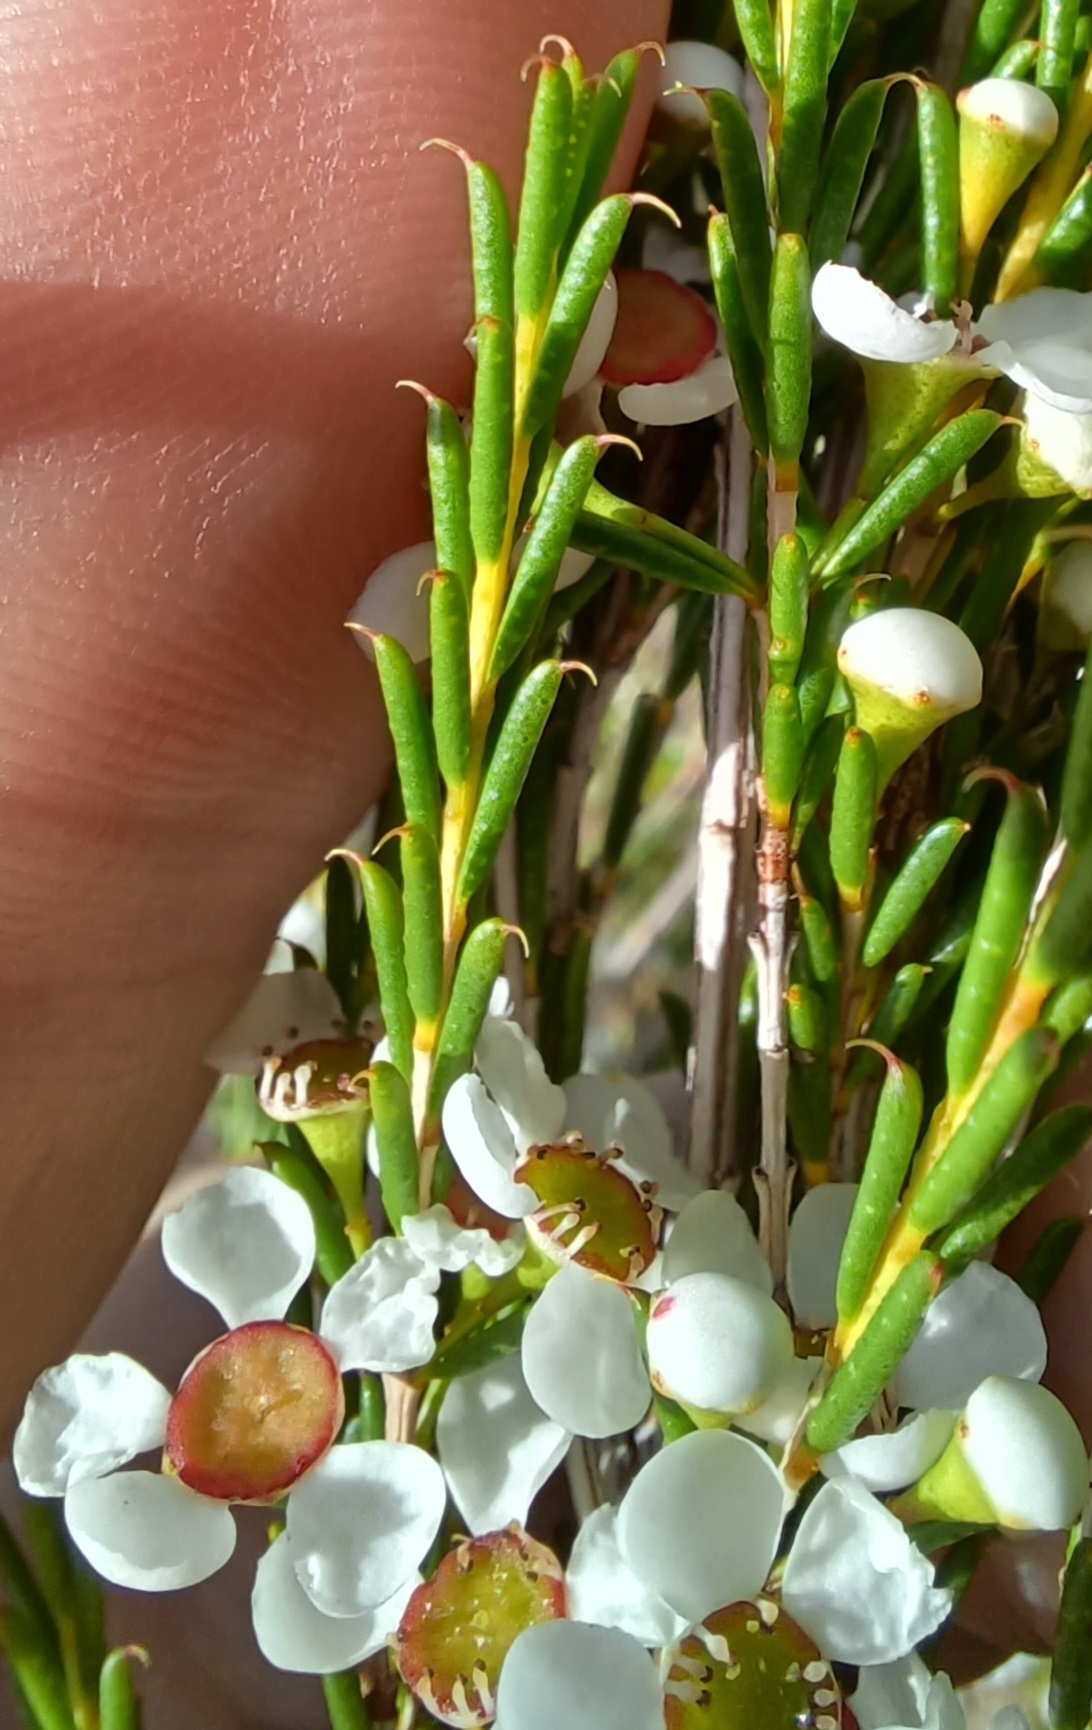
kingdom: Plantae
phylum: Tracheophyta
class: Magnoliopsida
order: Myrtales
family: Myrtaceae
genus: Hysterobaeckea
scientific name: Hysterobaeckea behrii
